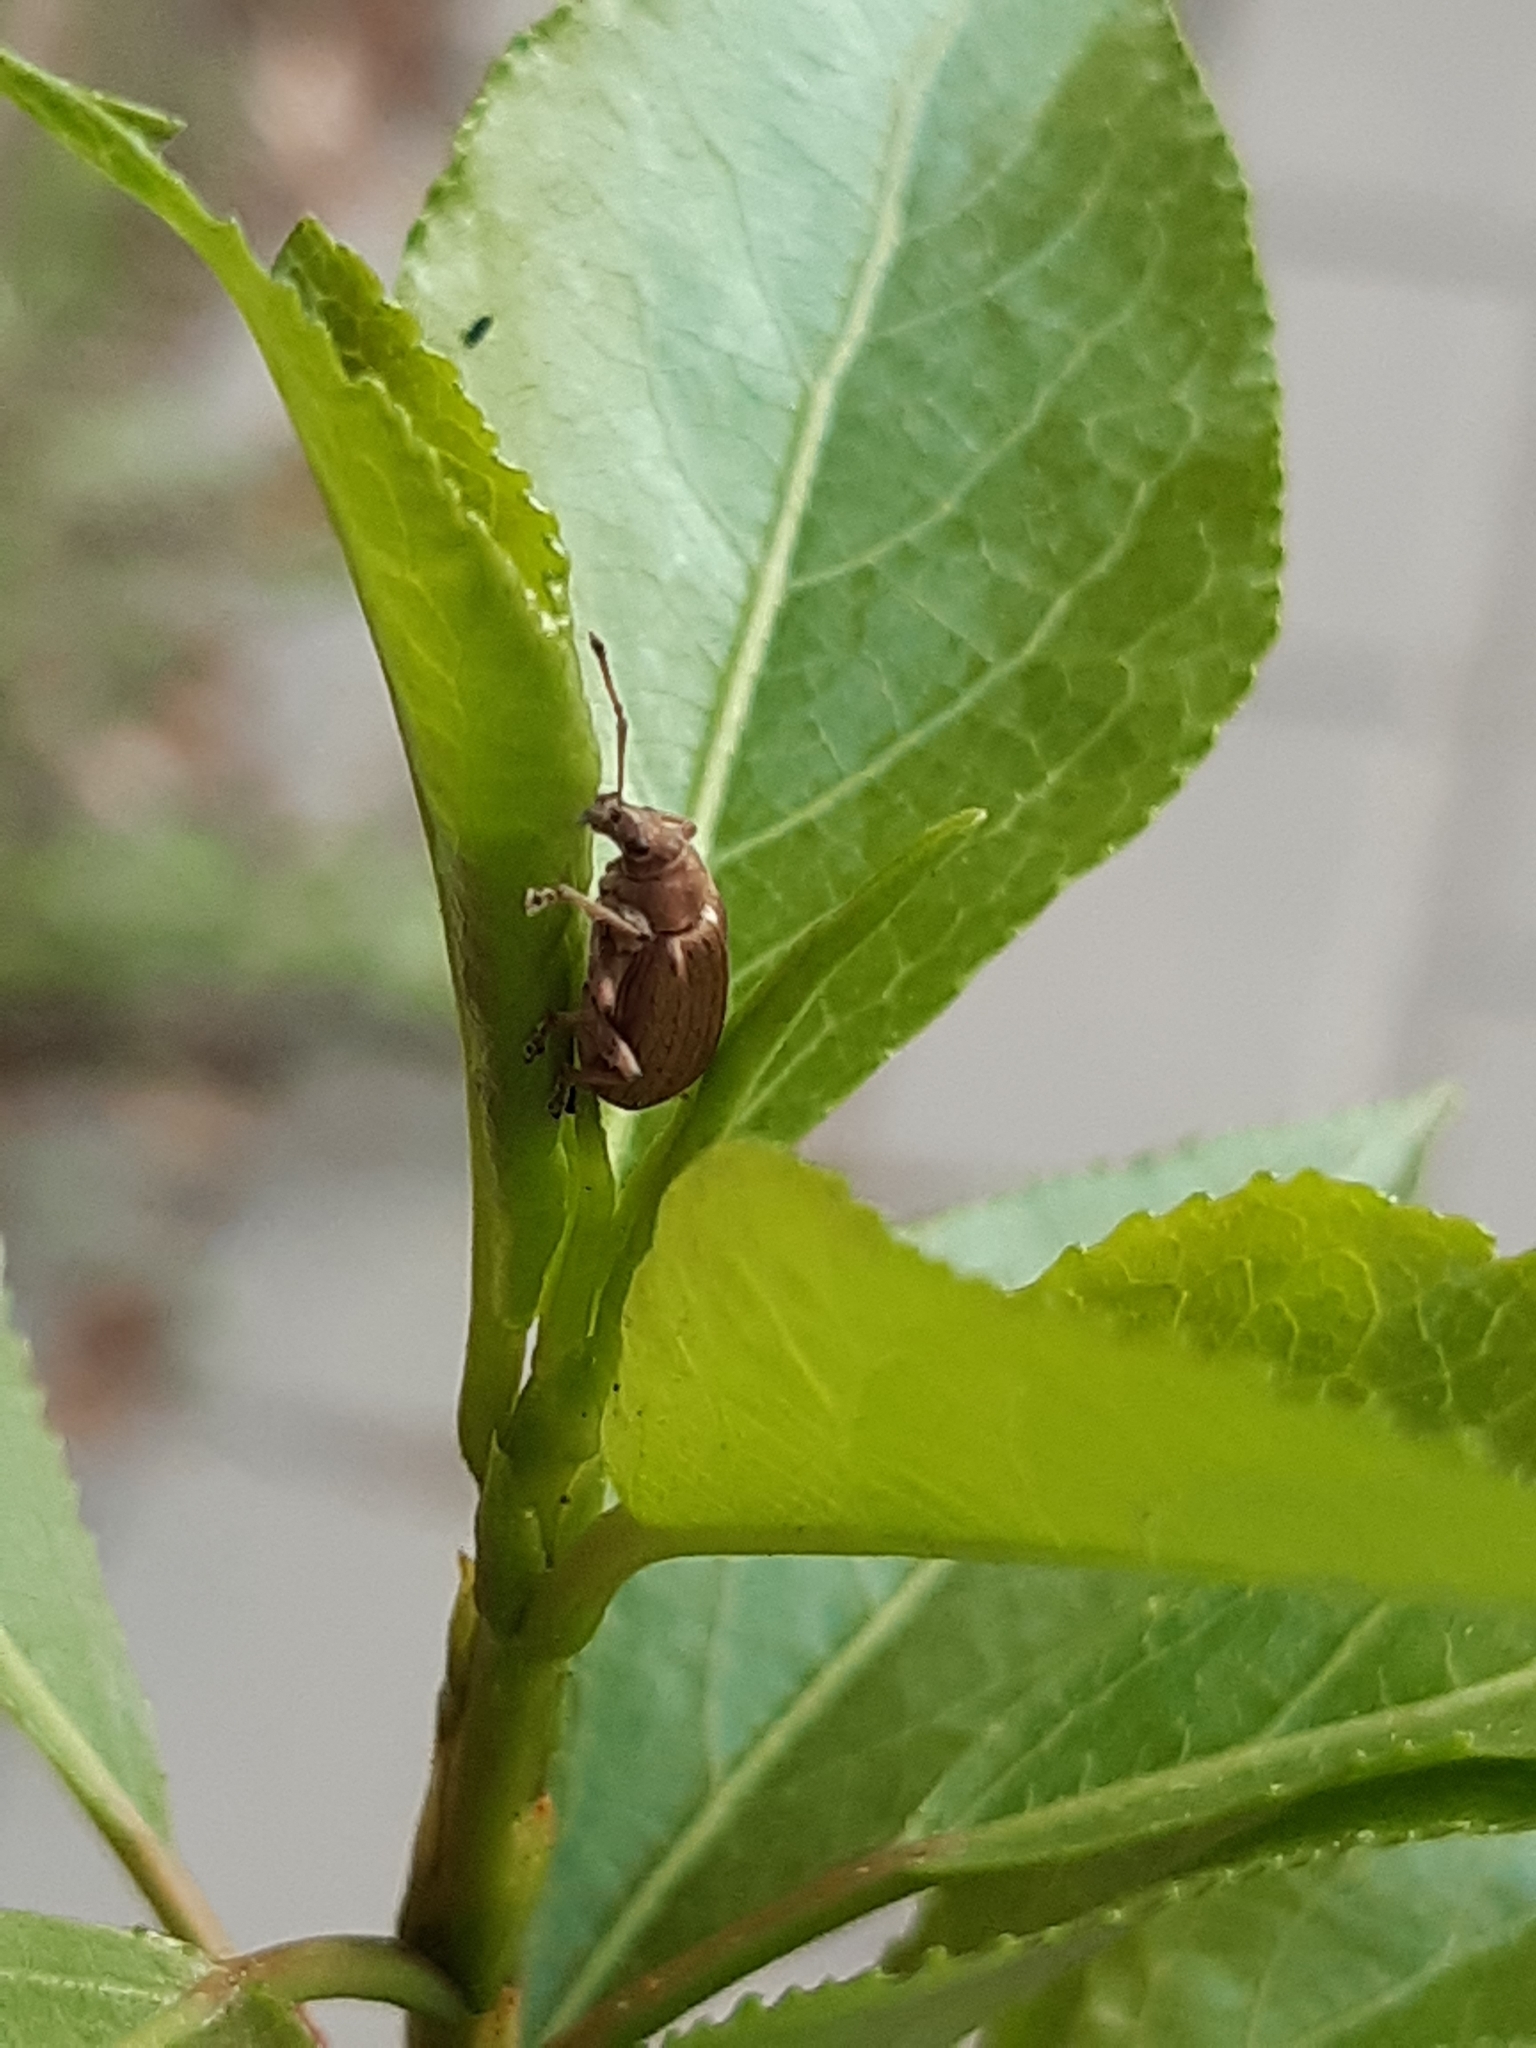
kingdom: Animalia
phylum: Arthropoda
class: Insecta
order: Coleoptera
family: Curculionidae
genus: Phyllobius
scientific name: Phyllobius pyri
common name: Common leaf weevil
